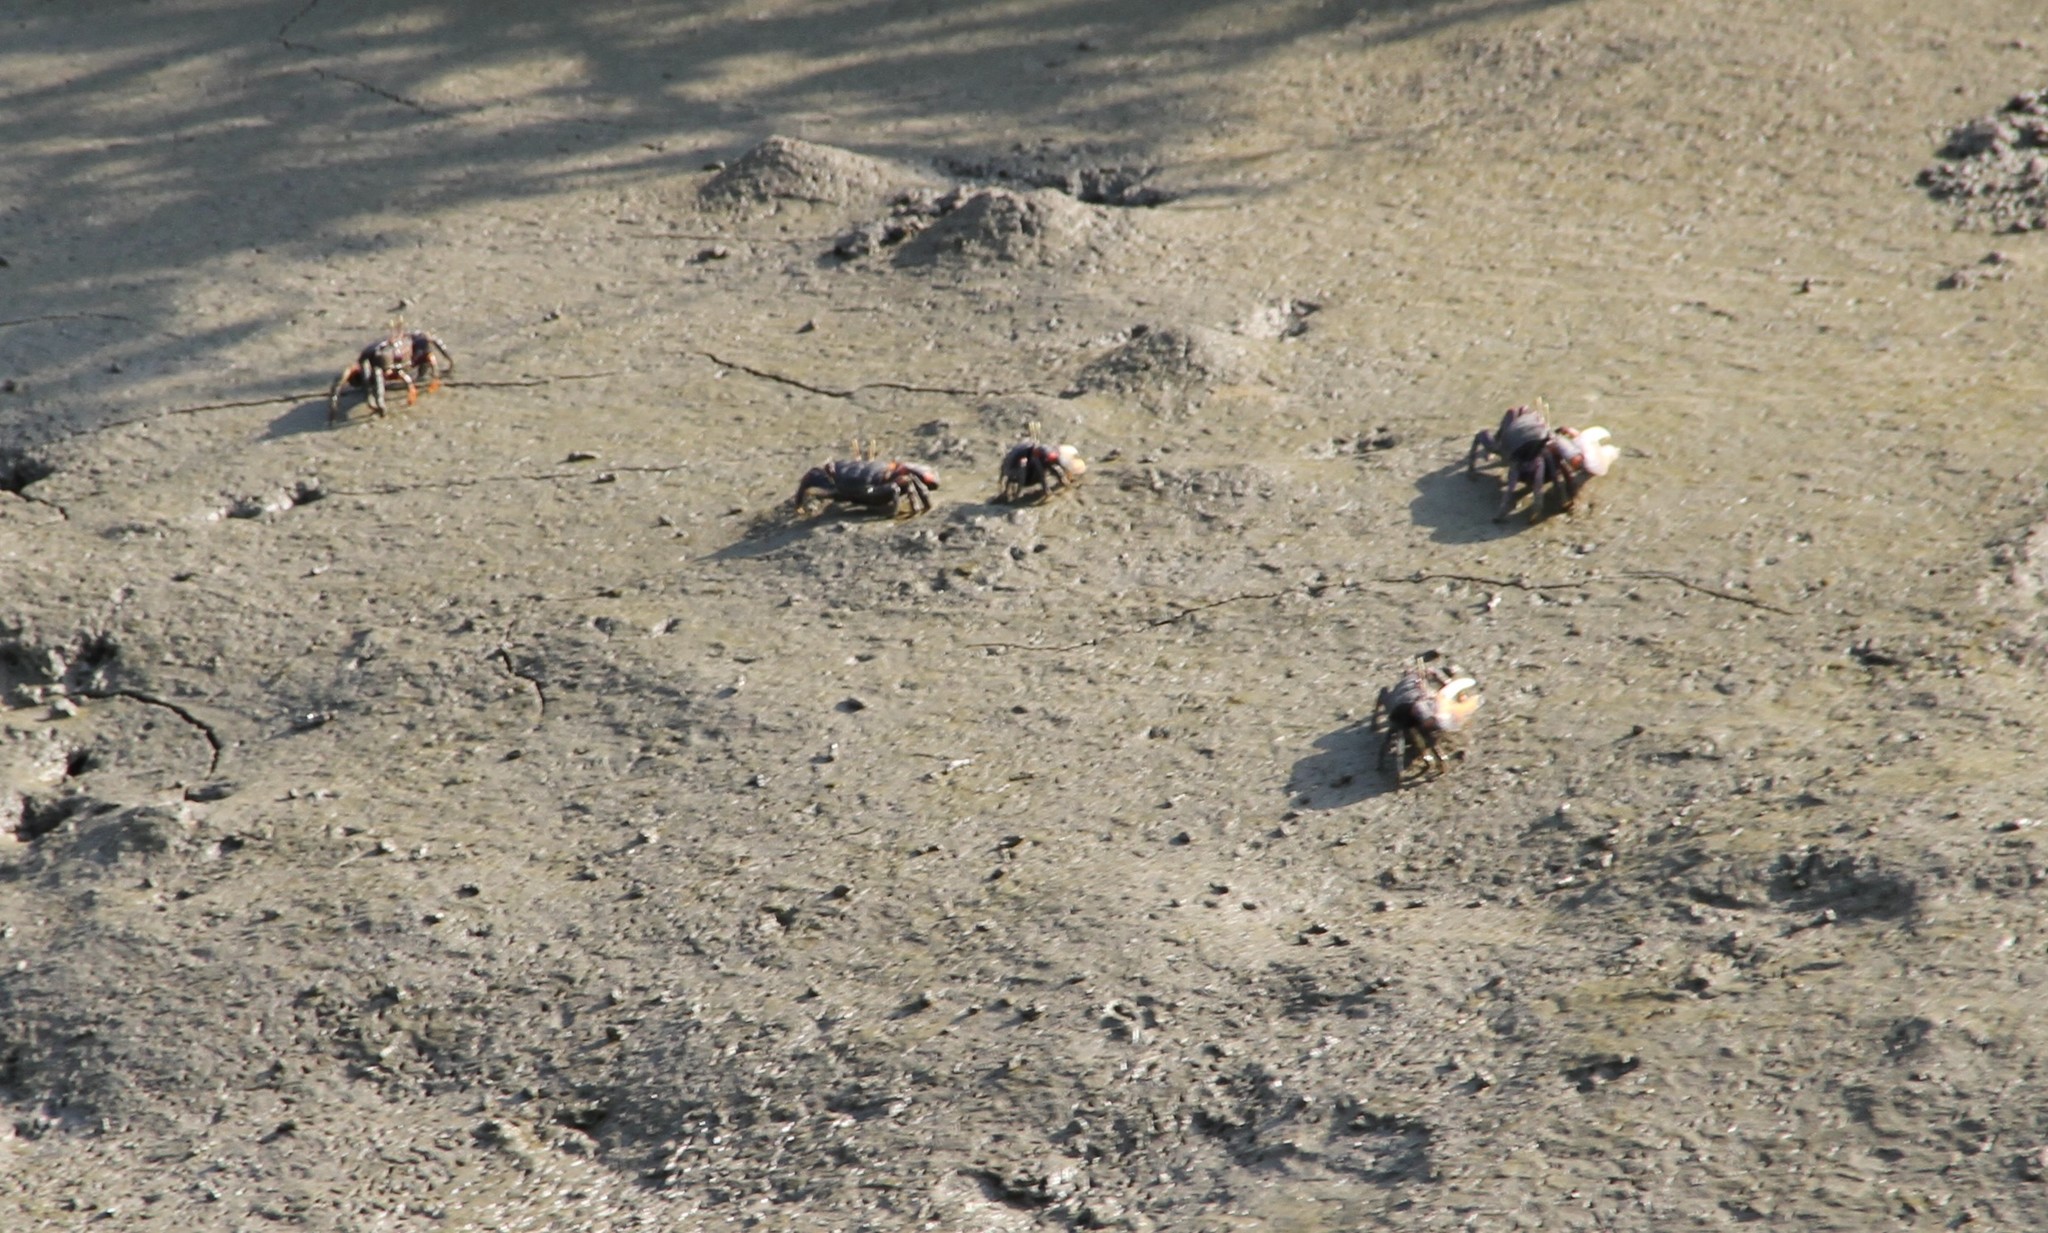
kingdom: Animalia
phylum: Arthropoda
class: Malacostraca
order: Decapoda
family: Ocypodidae
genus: Afruca
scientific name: Afruca tangeri
